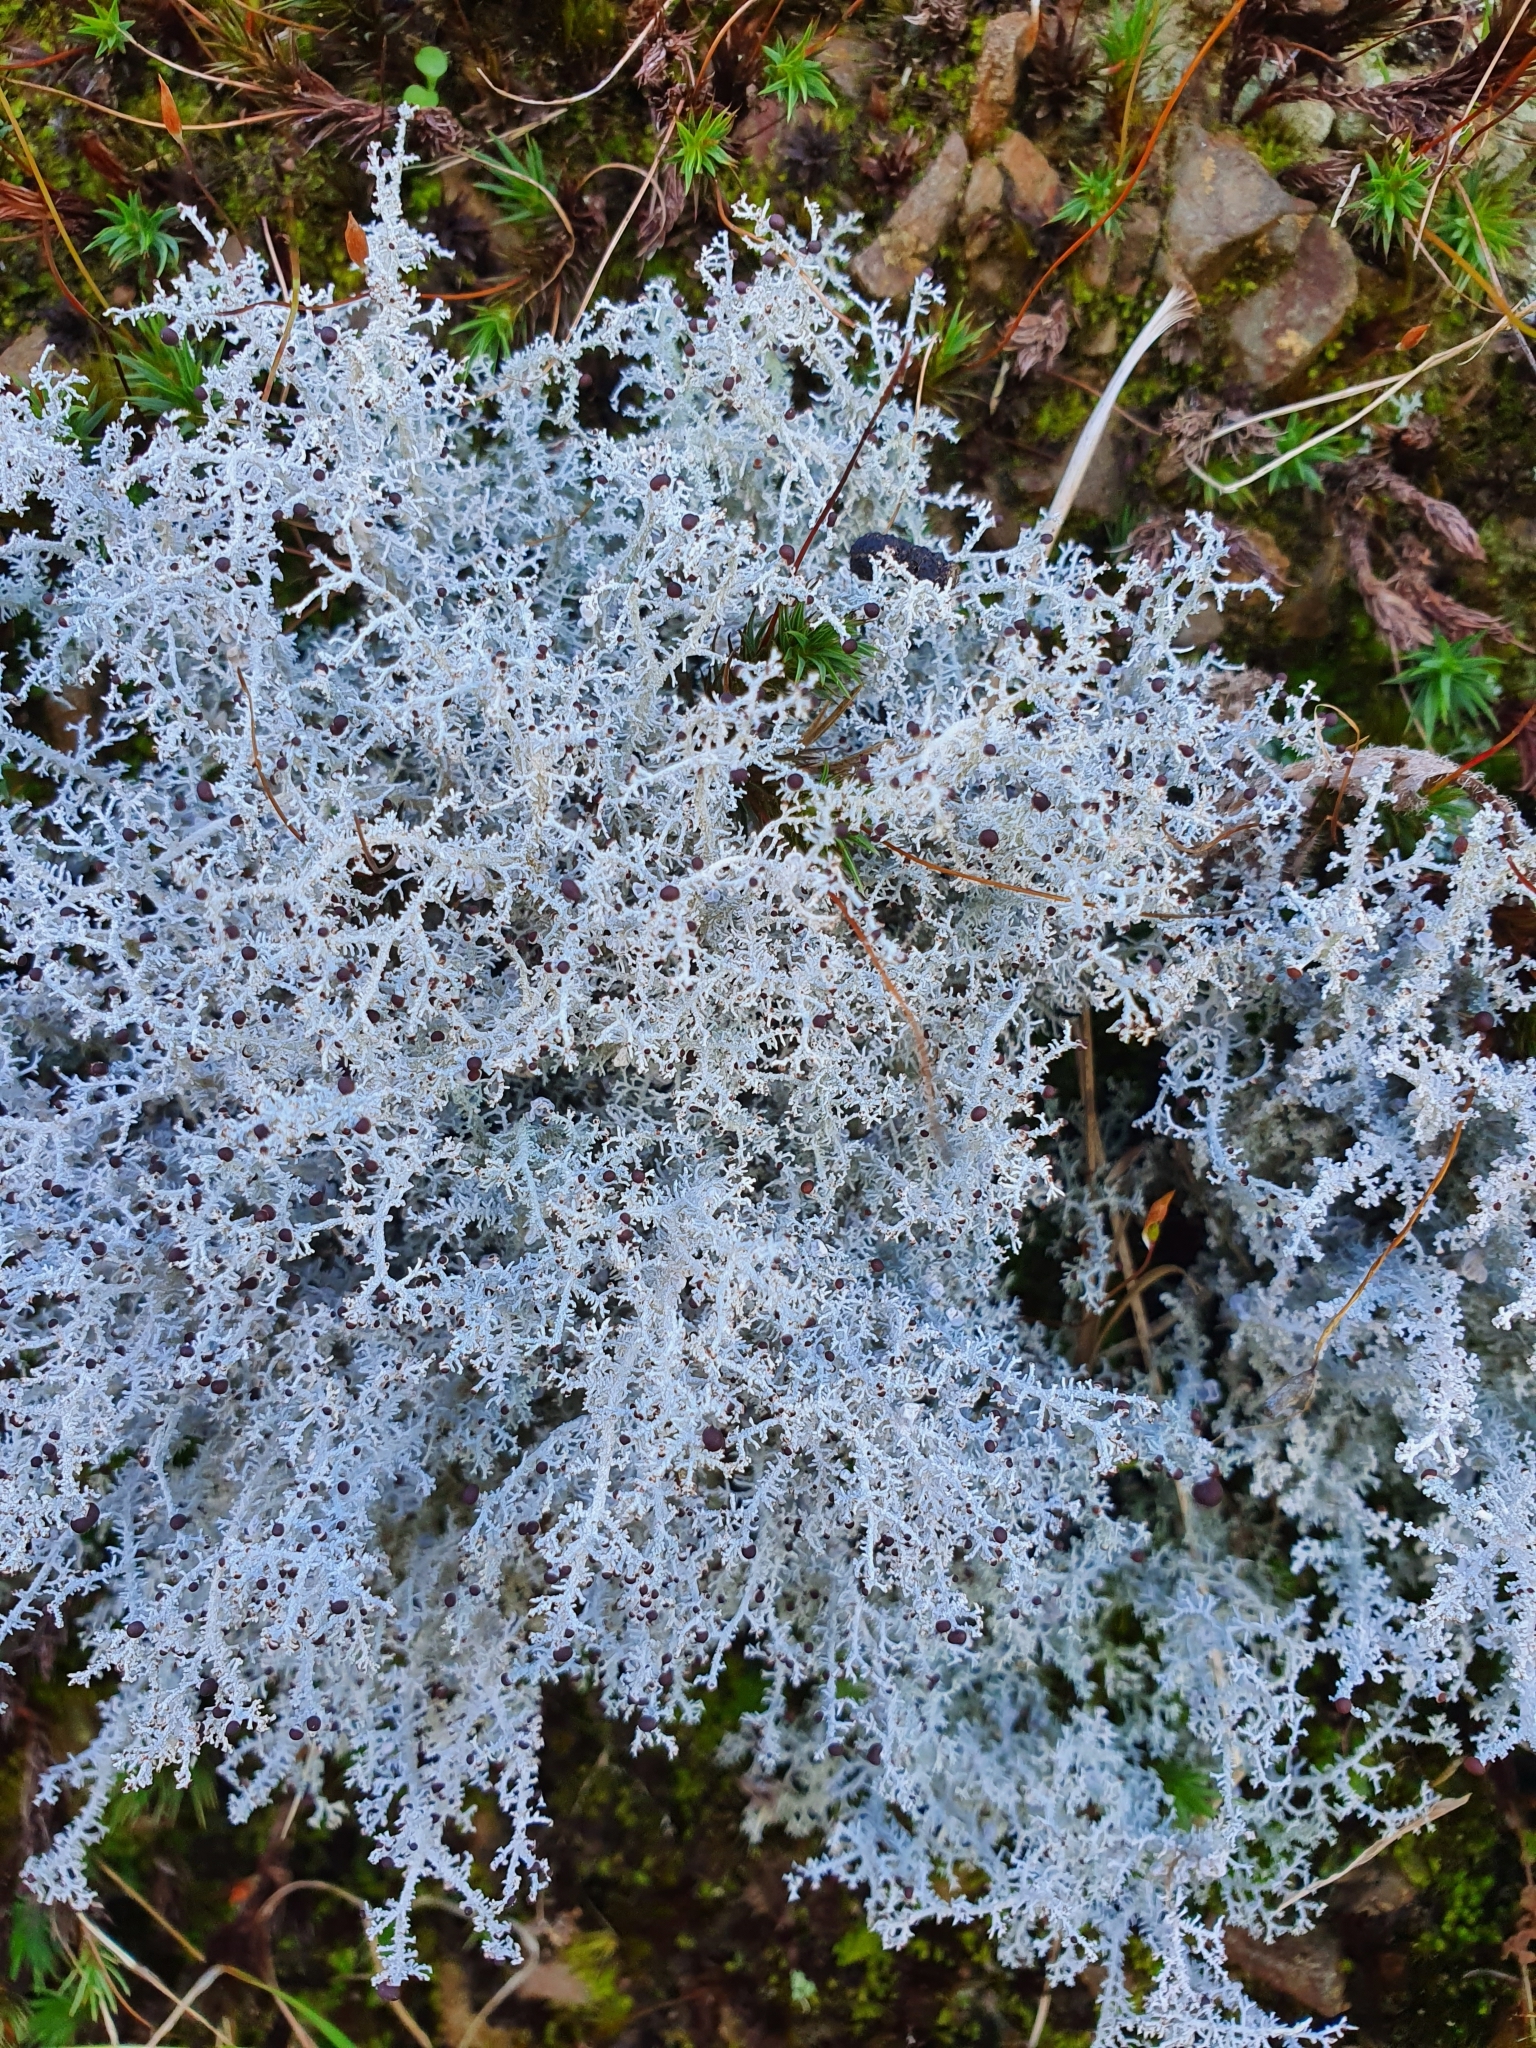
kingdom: Fungi
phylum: Ascomycota
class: Lecanoromycetes
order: Lecanorales
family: Stereocaulaceae
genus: Stereocaulon
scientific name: Stereocaulon ramulosum
